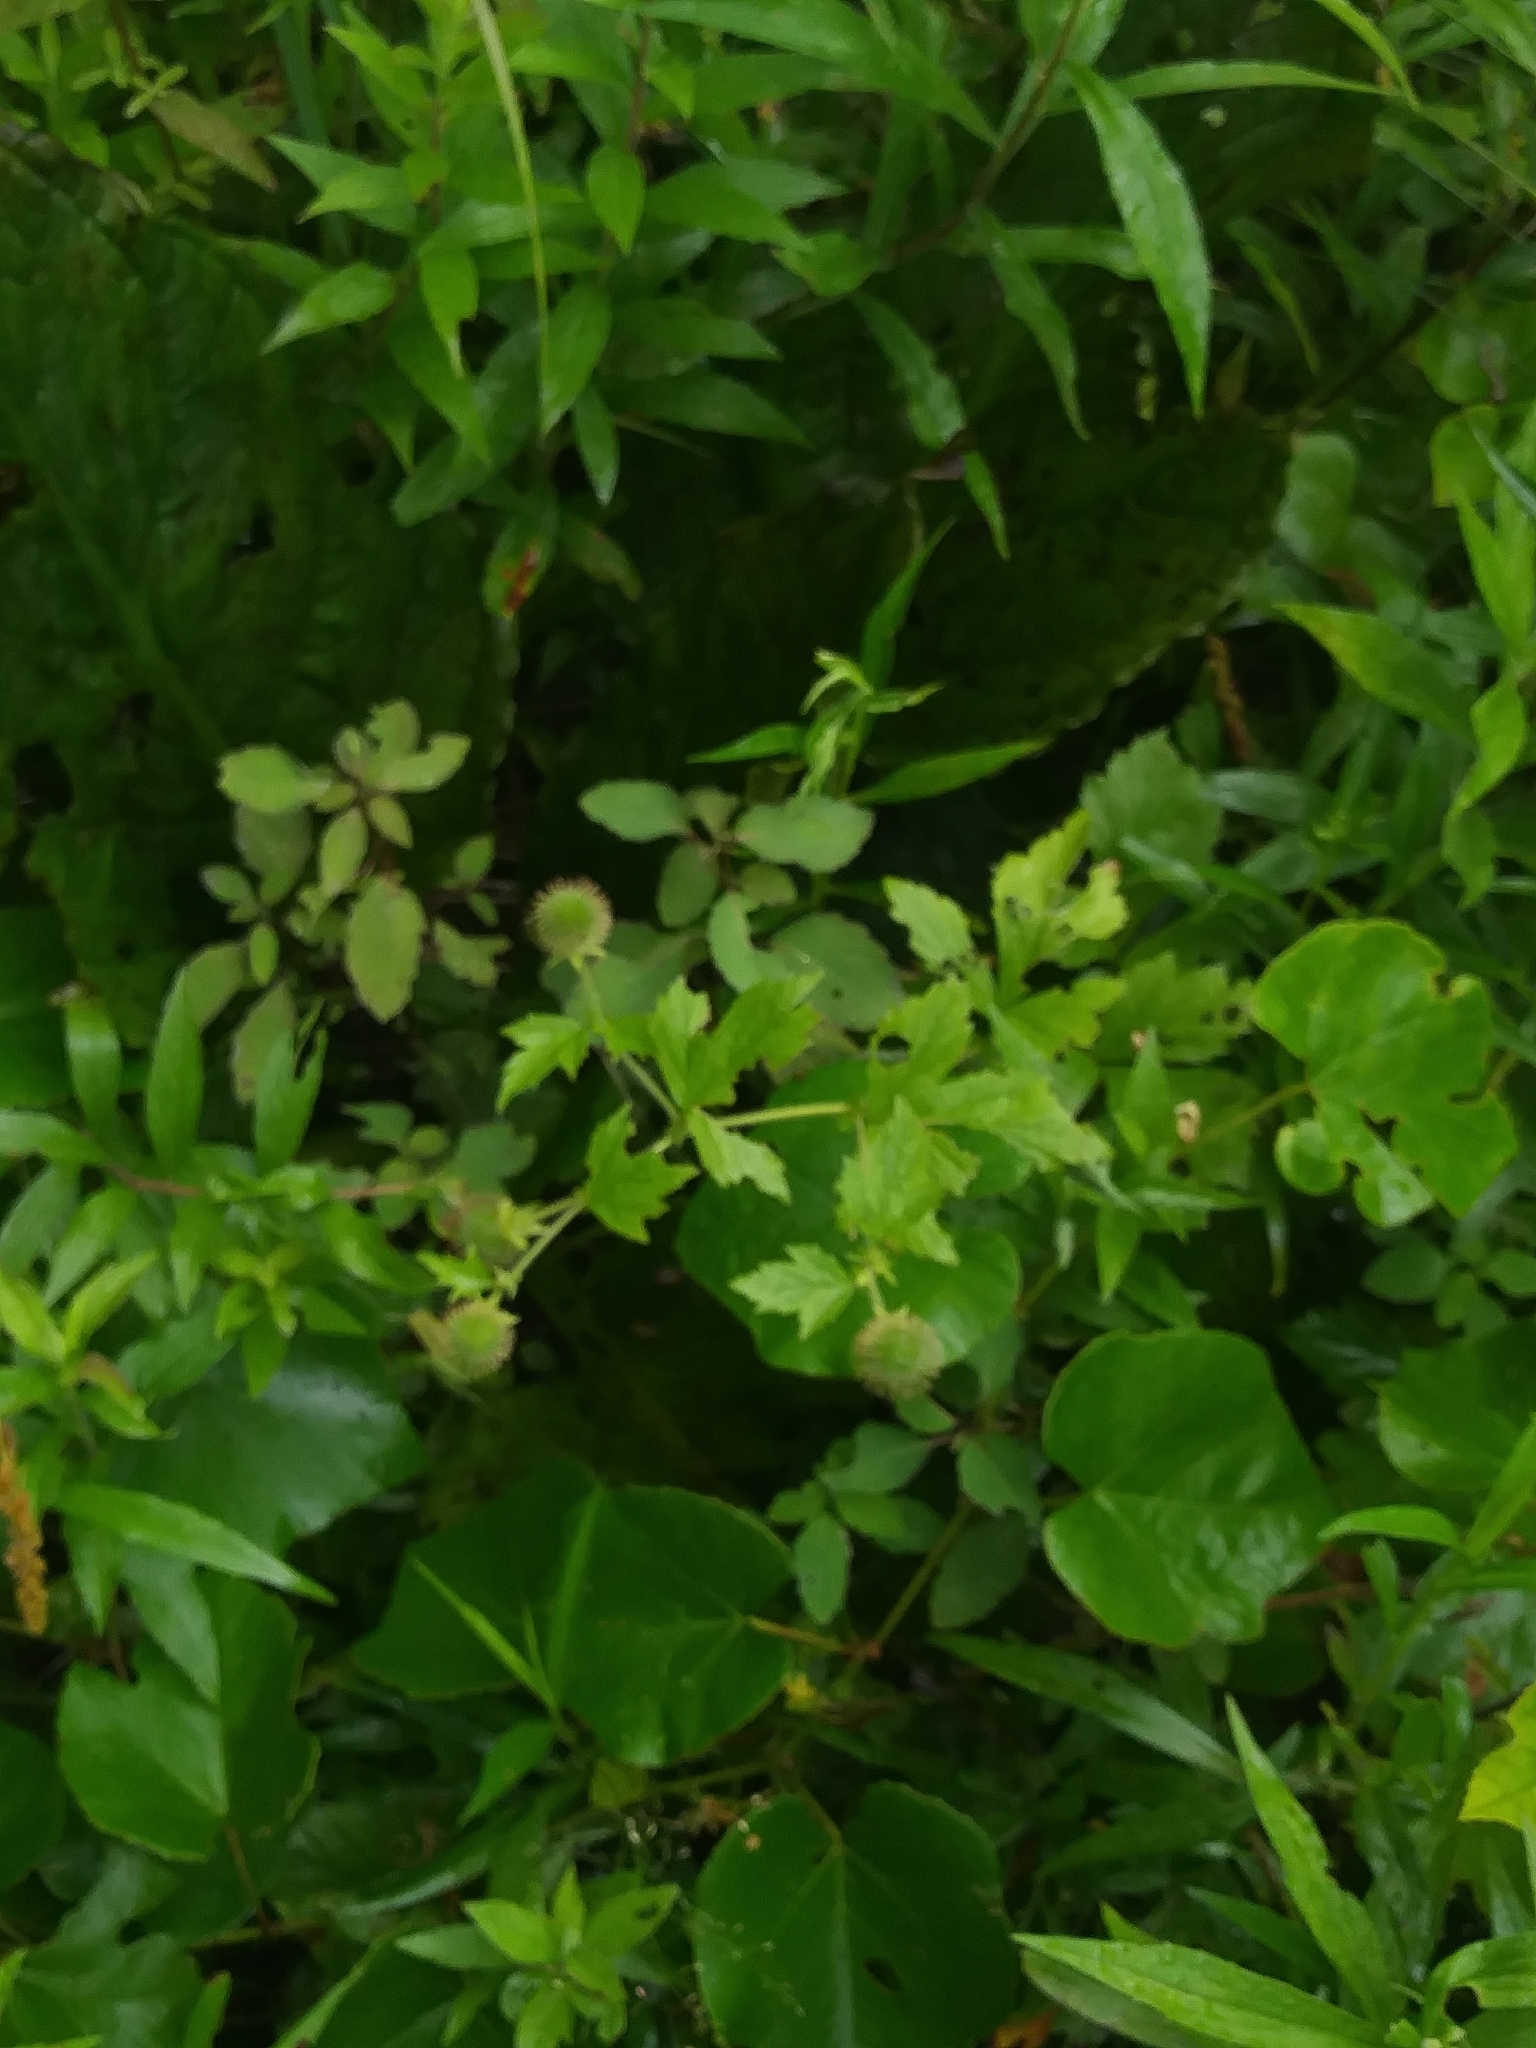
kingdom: Plantae
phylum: Tracheophyta
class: Magnoliopsida
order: Rosales
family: Rosaceae
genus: Geum
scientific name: Geum laciniatum
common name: Rough avens
